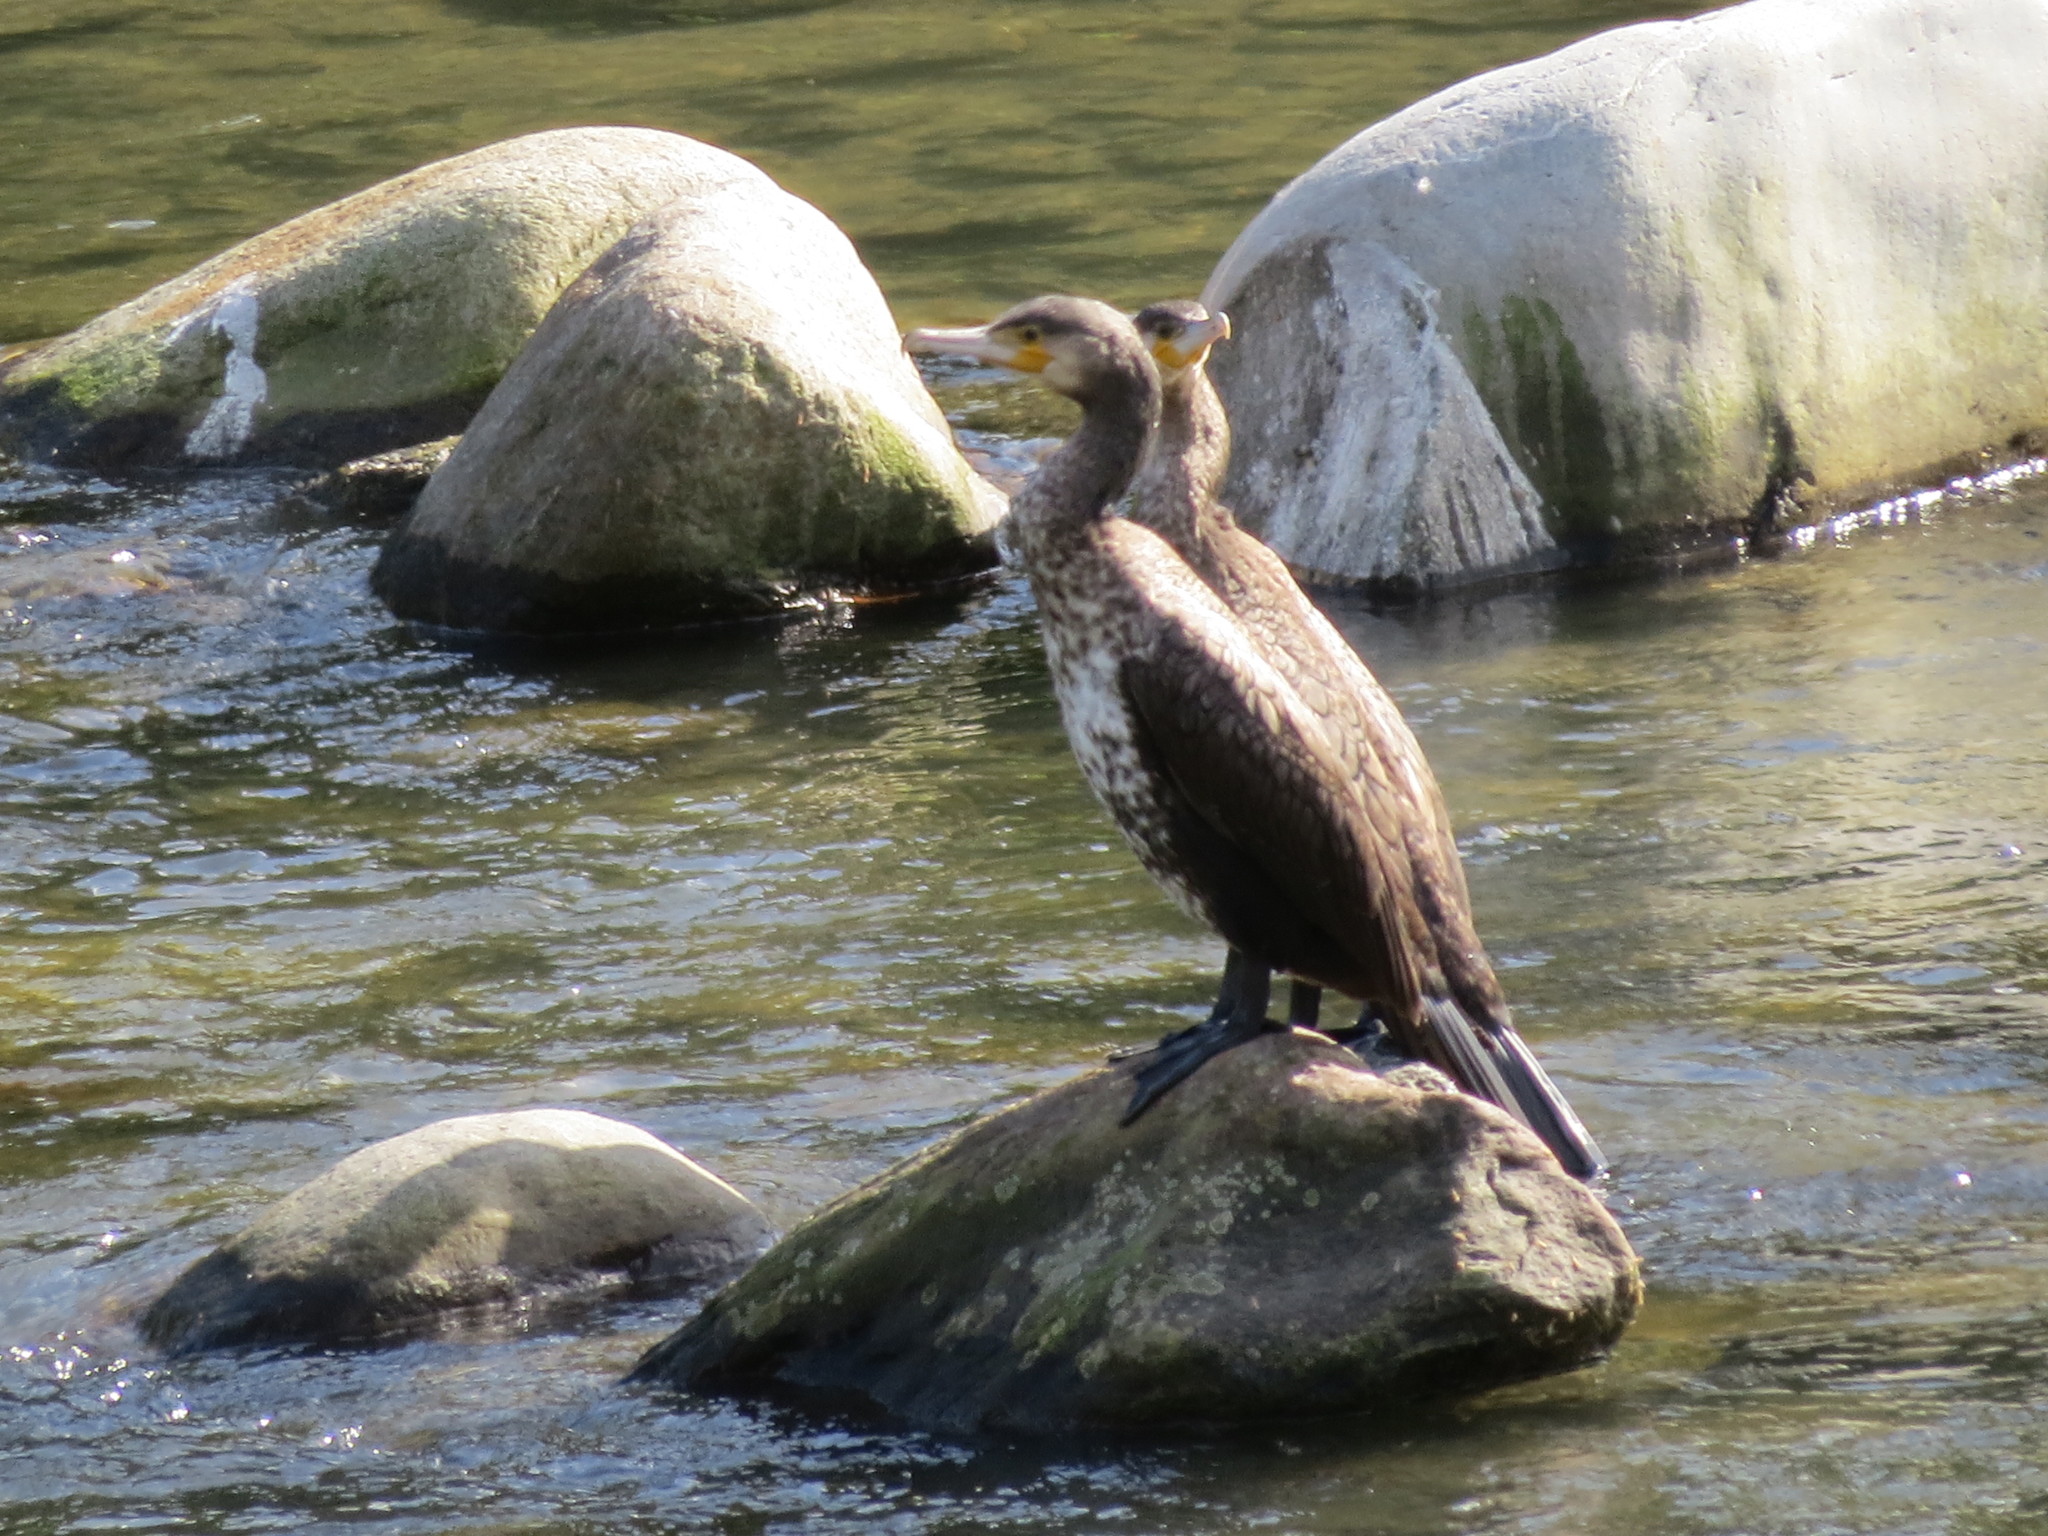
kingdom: Animalia
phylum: Chordata
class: Aves
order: Suliformes
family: Phalacrocoracidae
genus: Phalacrocorax
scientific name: Phalacrocorax carbo
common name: Great cormorant
